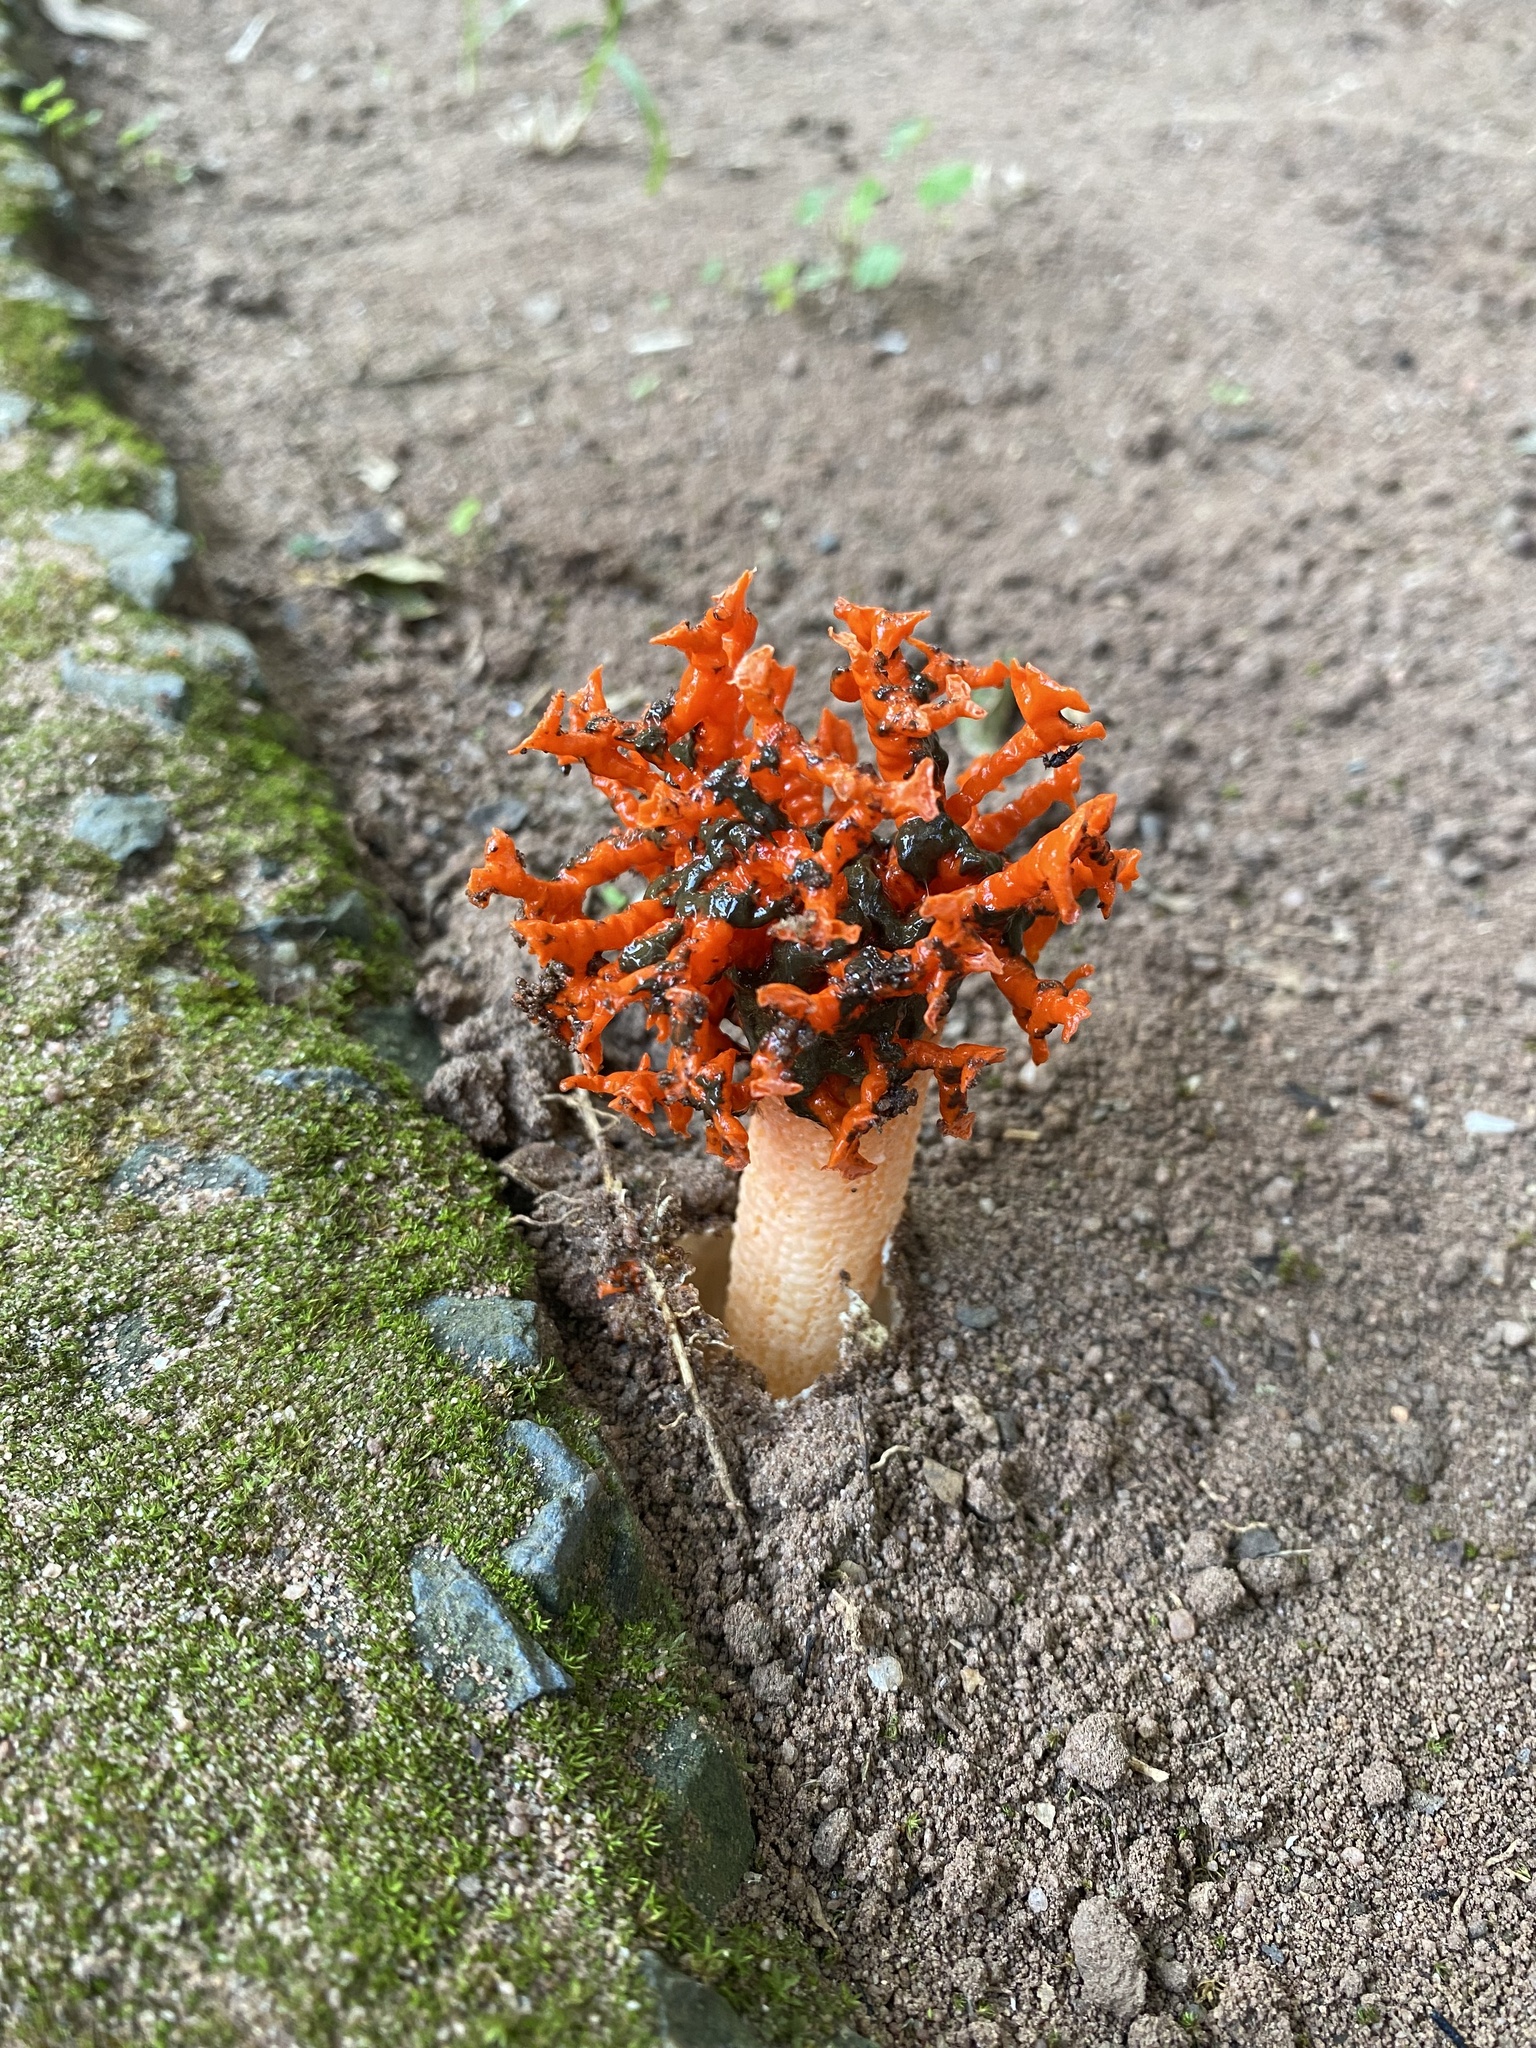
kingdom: Fungi
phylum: Basidiomycota
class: Agaricomycetes
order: Phallales
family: Phallaceae
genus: Lysurus
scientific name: Lysurus corallocephalus
